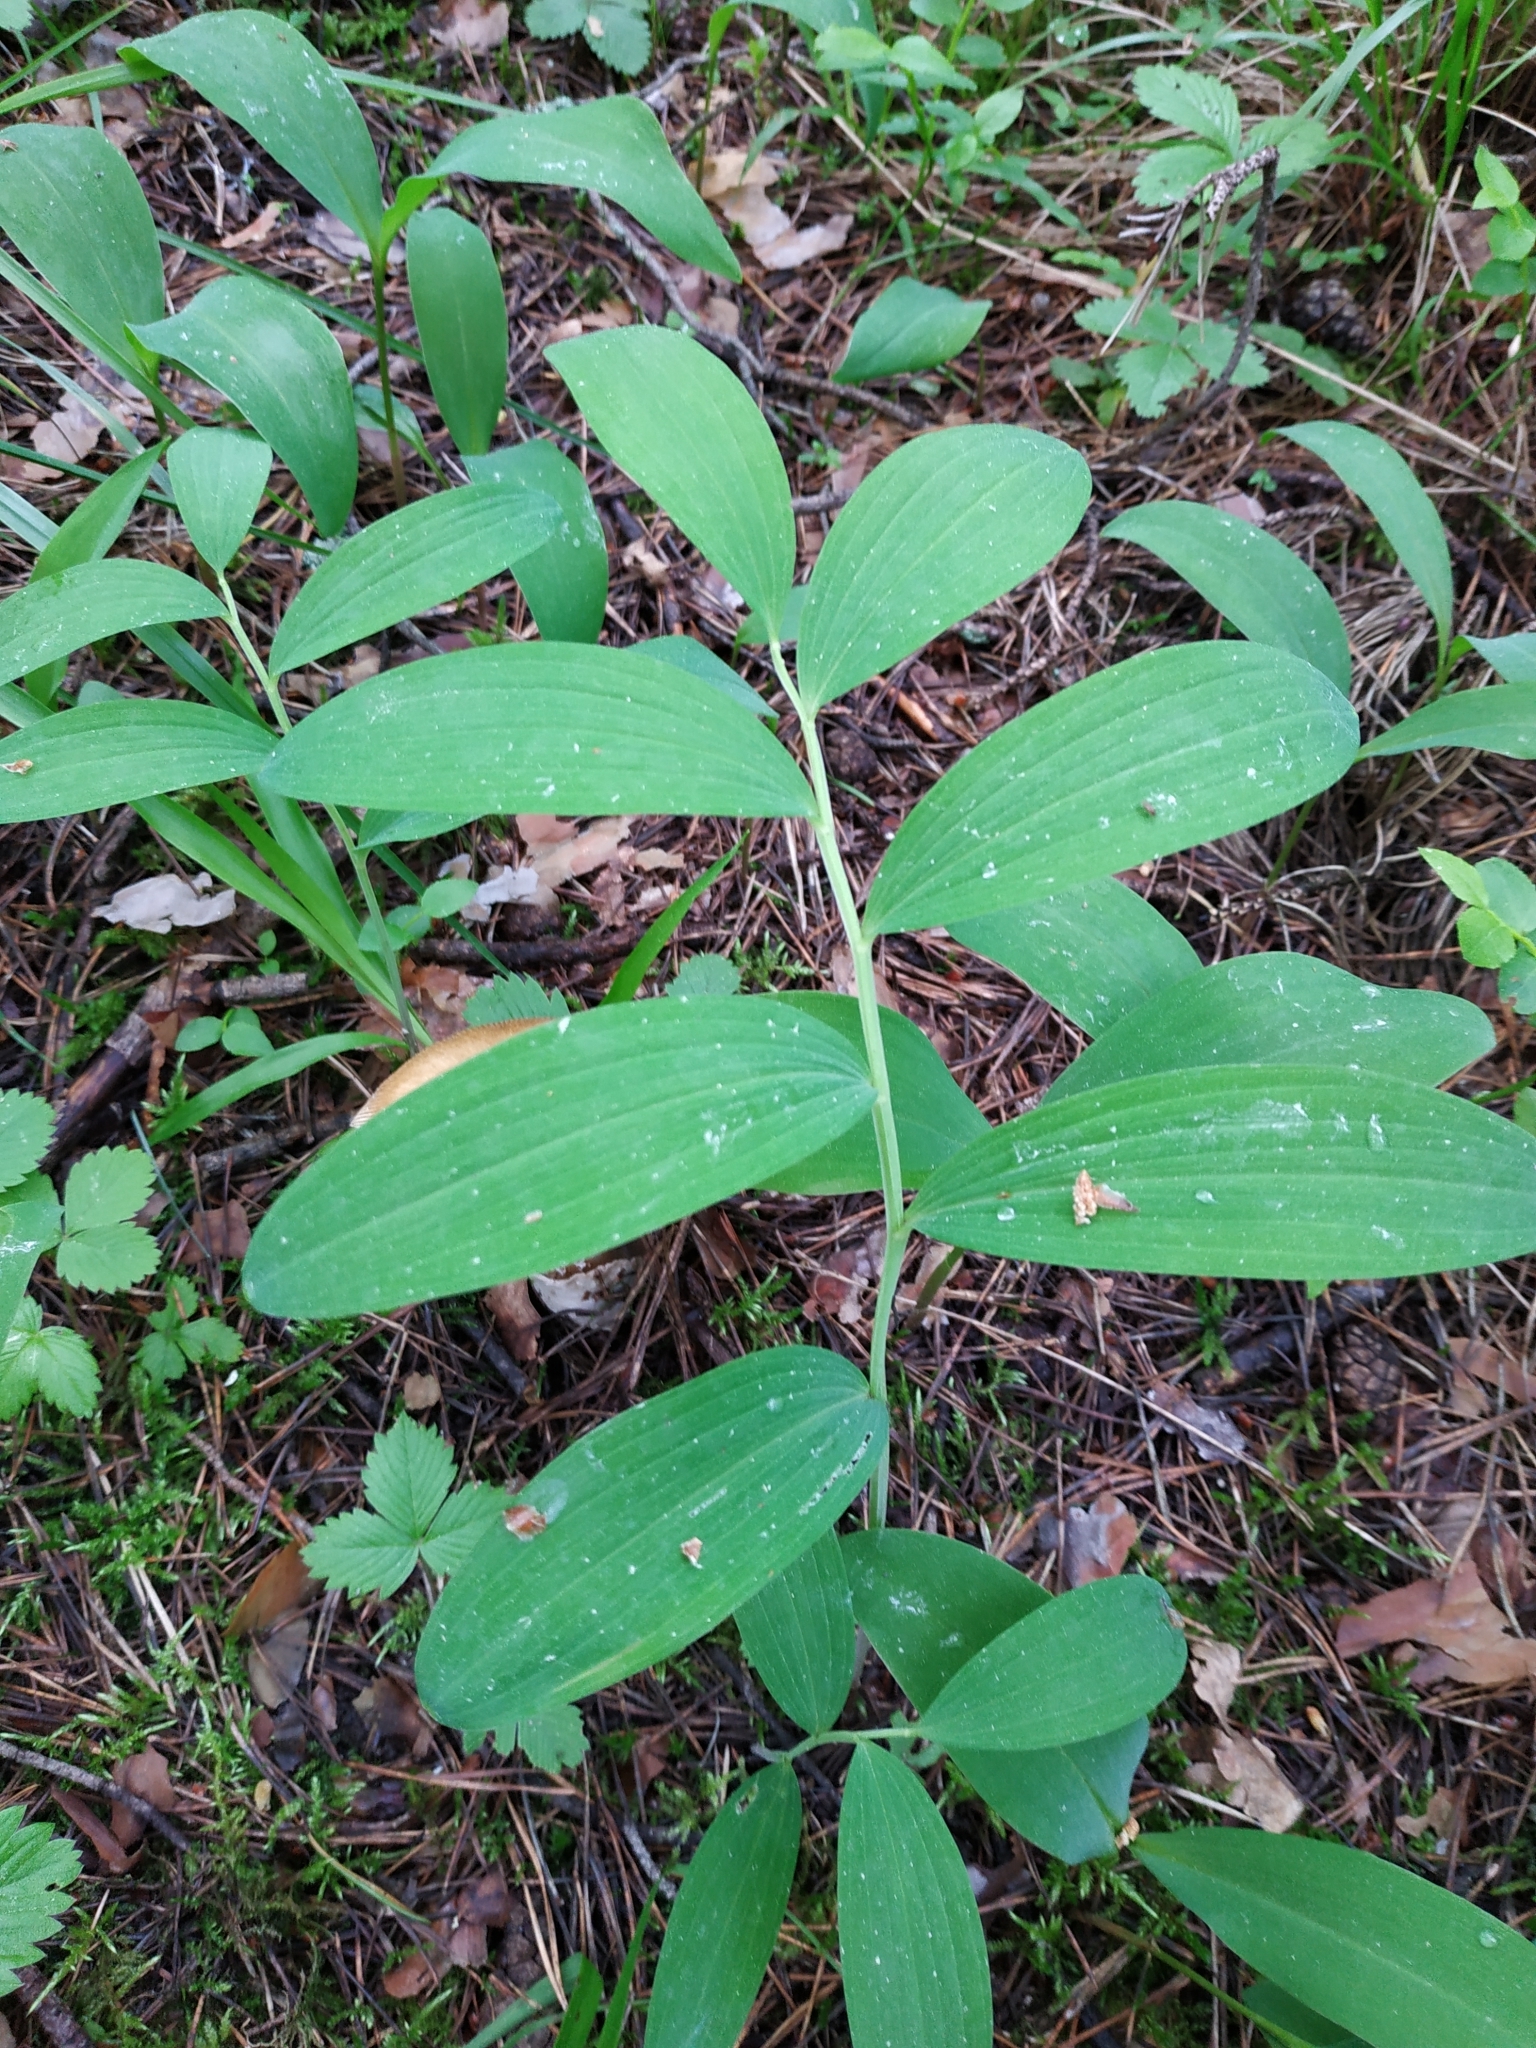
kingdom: Plantae
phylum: Tracheophyta
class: Liliopsida
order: Asparagales
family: Asparagaceae
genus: Polygonatum
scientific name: Polygonatum odoratum
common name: Angular solomon's-seal
